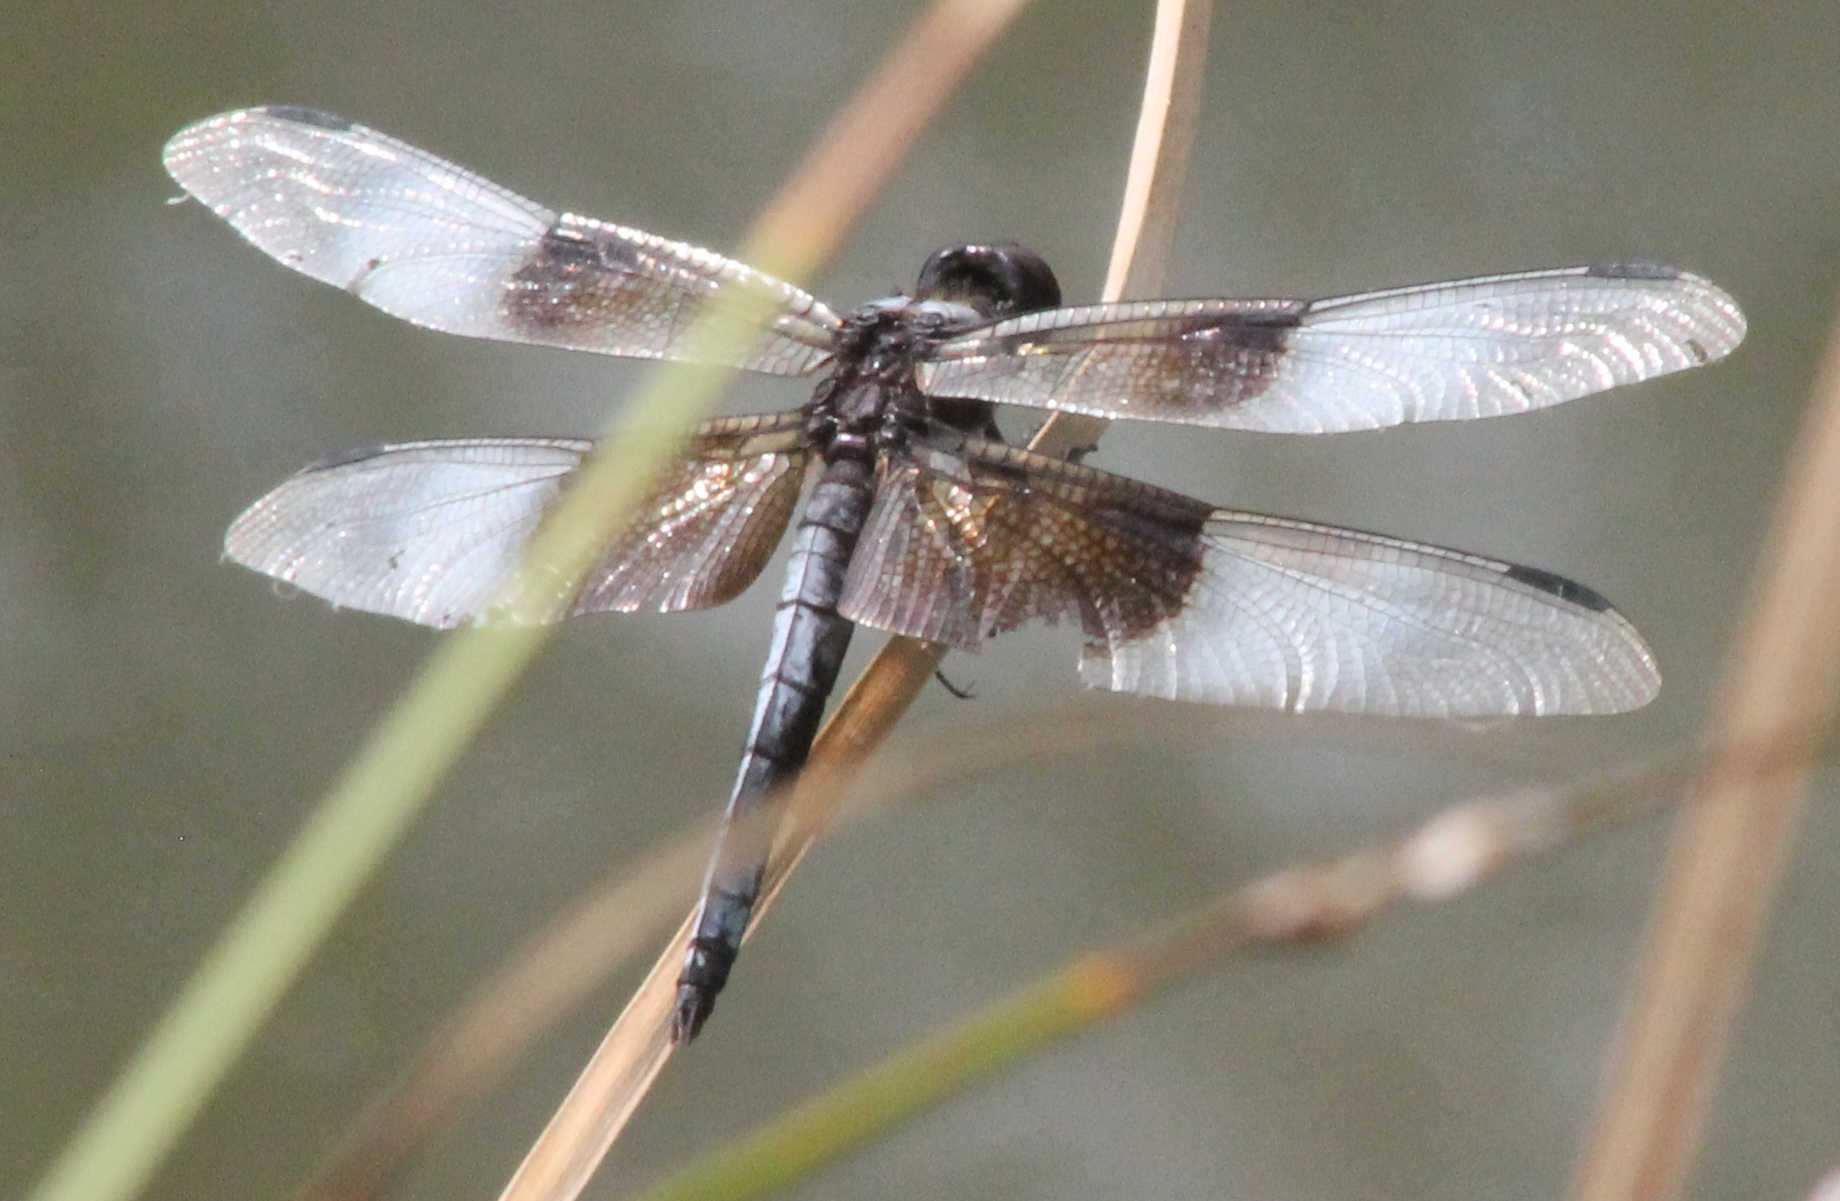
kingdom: Animalia
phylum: Arthropoda
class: Insecta
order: Odonata
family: Libellulidae
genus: Libellula
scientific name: Libellula luctuosa
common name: Widow skimmer
